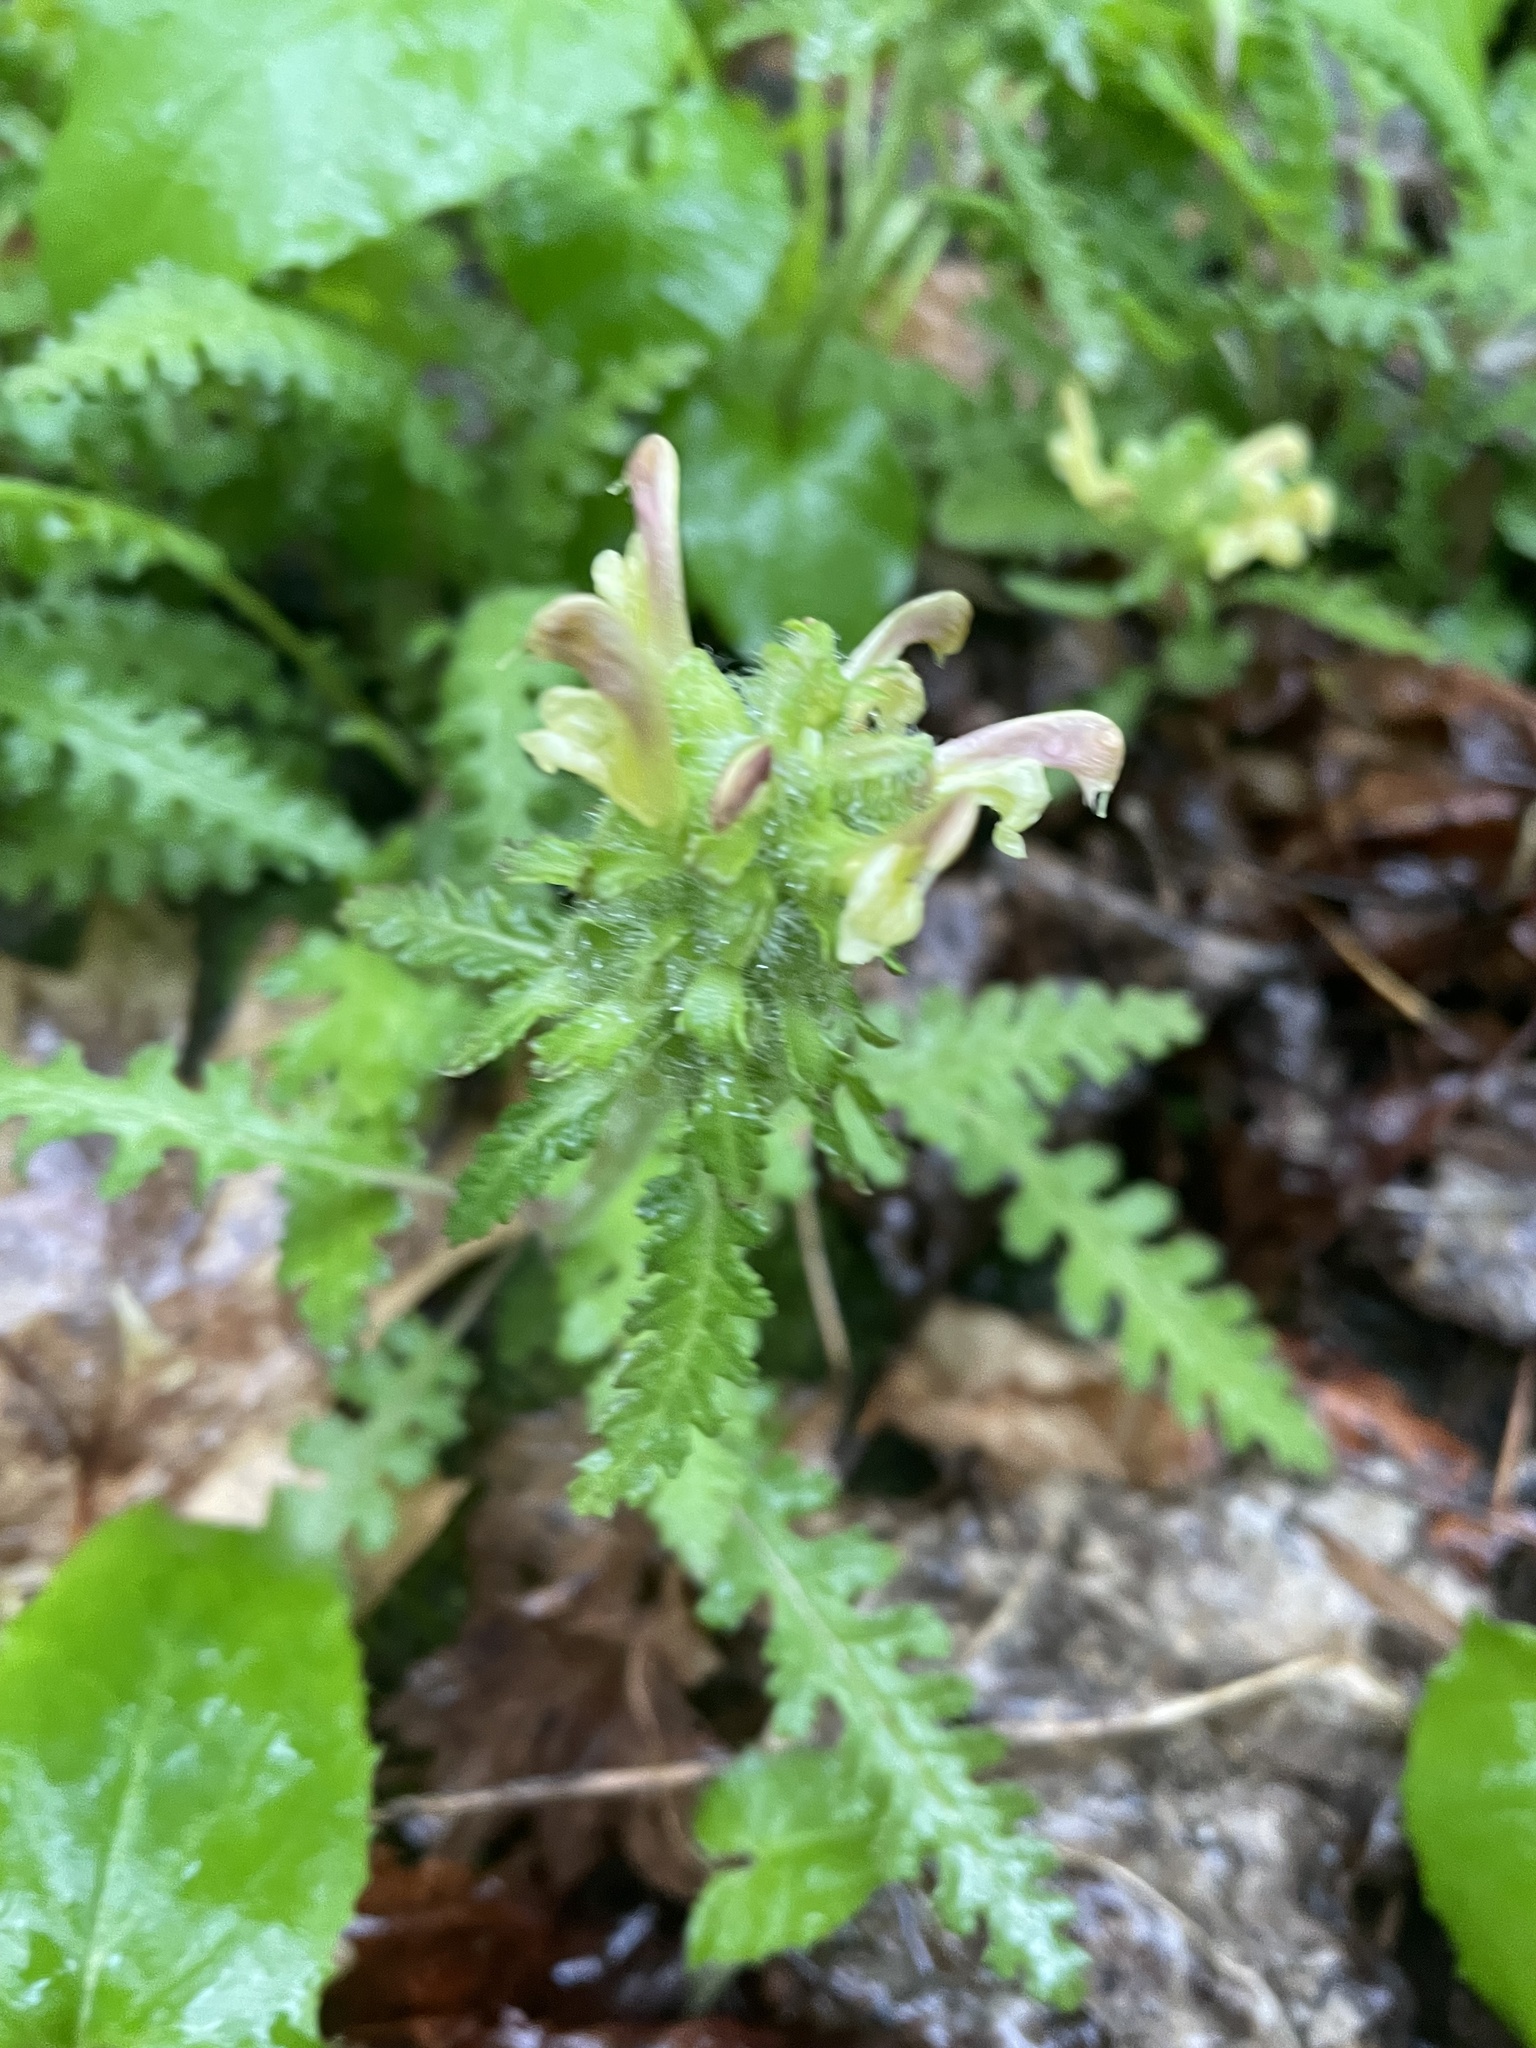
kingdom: Plantae
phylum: Tracheophyta
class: Magnoliopsida
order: Lamiales
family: Orobanchaceae
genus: Pedicularis
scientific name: Pedicularis canadensis
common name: Early lousewort
